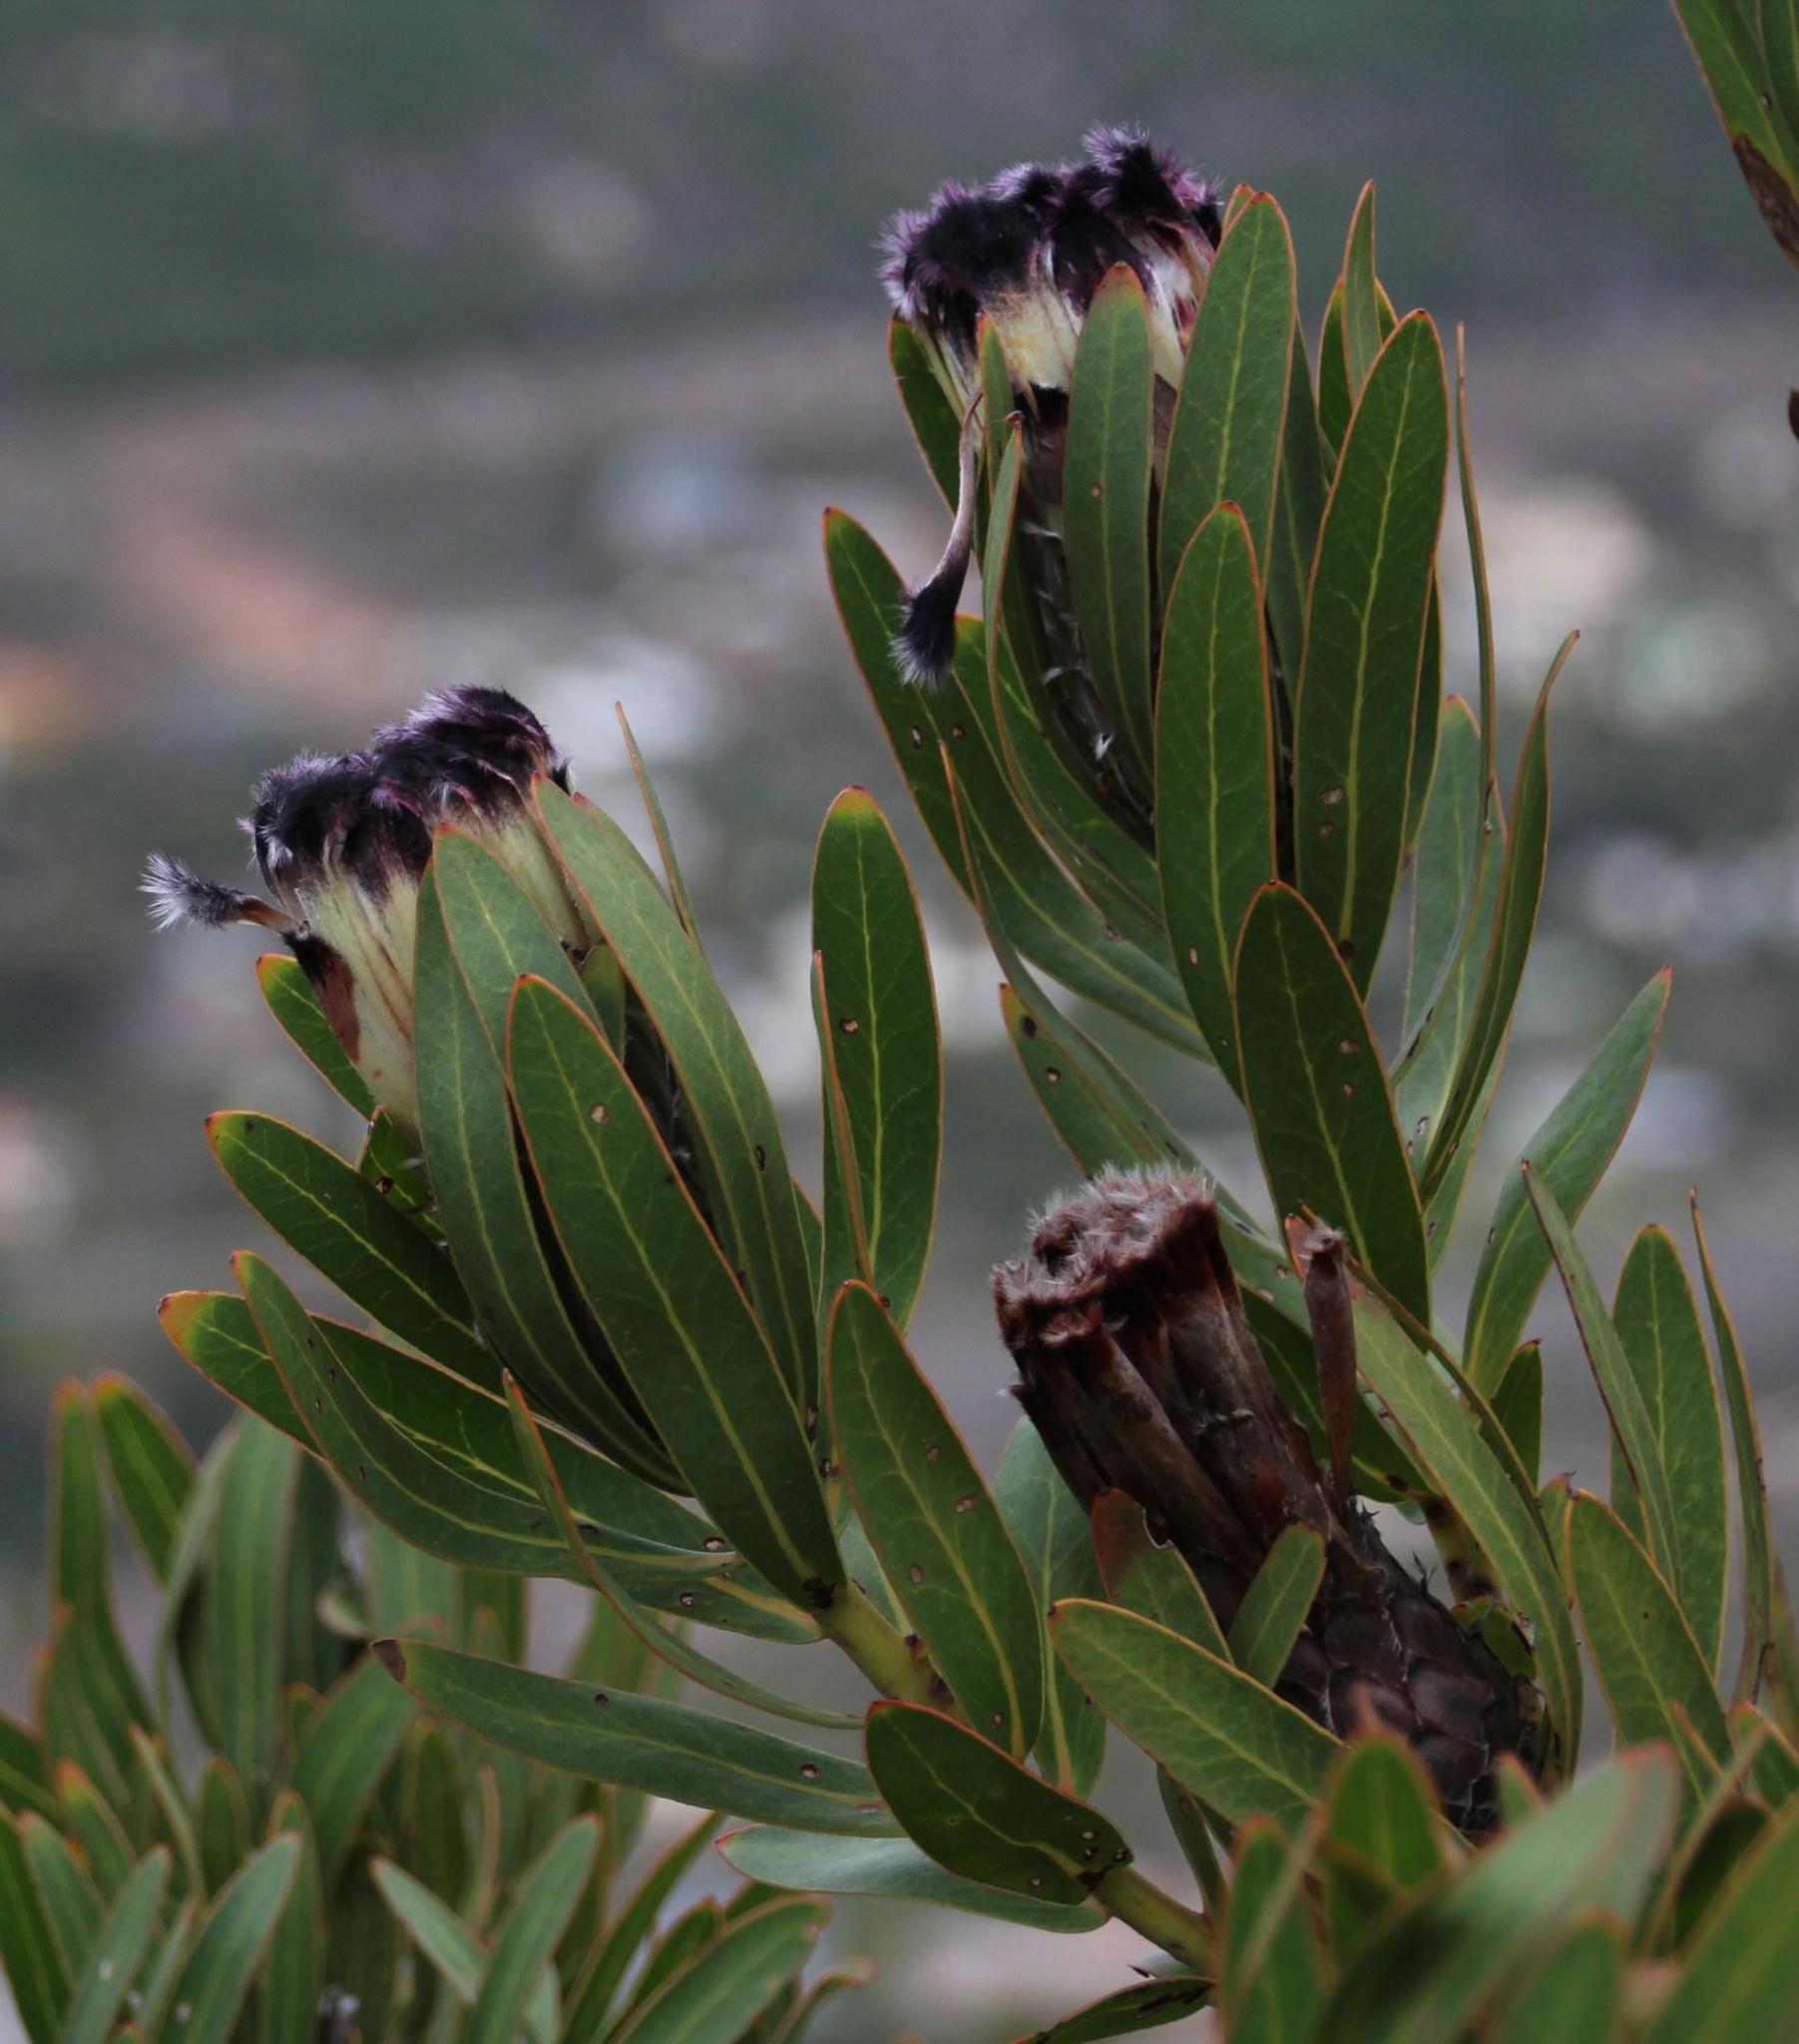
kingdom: Plantae
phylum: Tracheophyta
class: Magnoliopsida
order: Proteales
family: Proteaceae
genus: Protea
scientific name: Protea lepidocarpodendron
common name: Black-bearded protea
